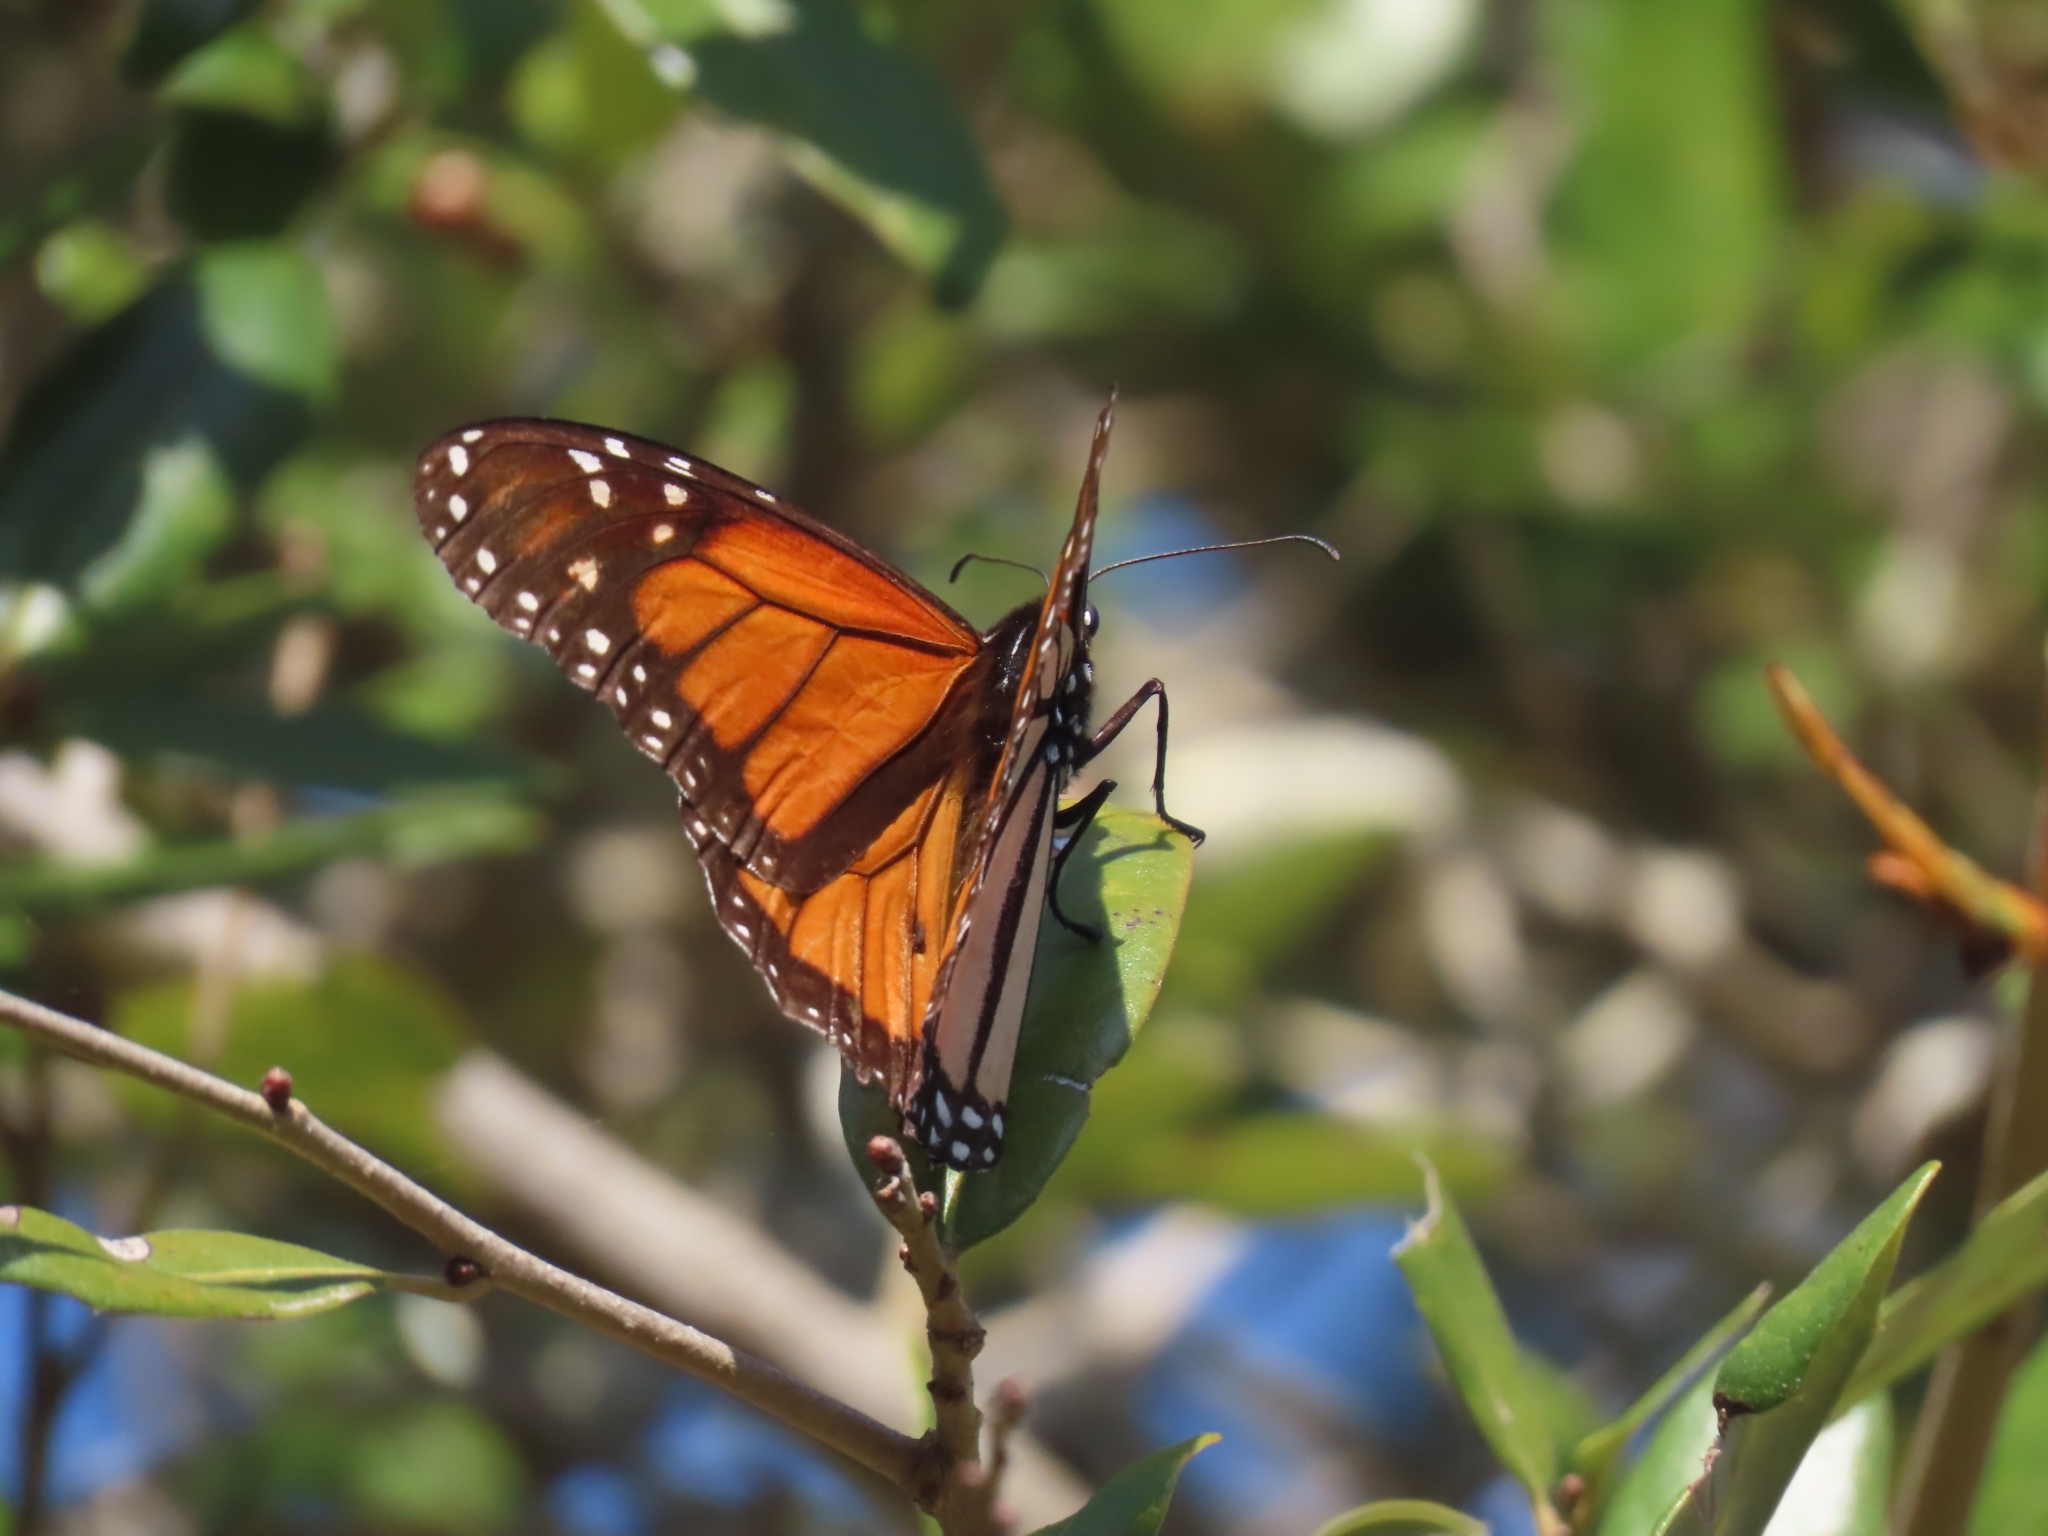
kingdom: Animalia
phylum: Arthropoda
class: Insecta
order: Lepidoptera
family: Nymphalidae
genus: Danaus
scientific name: Danaus plexippus
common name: Monarch
